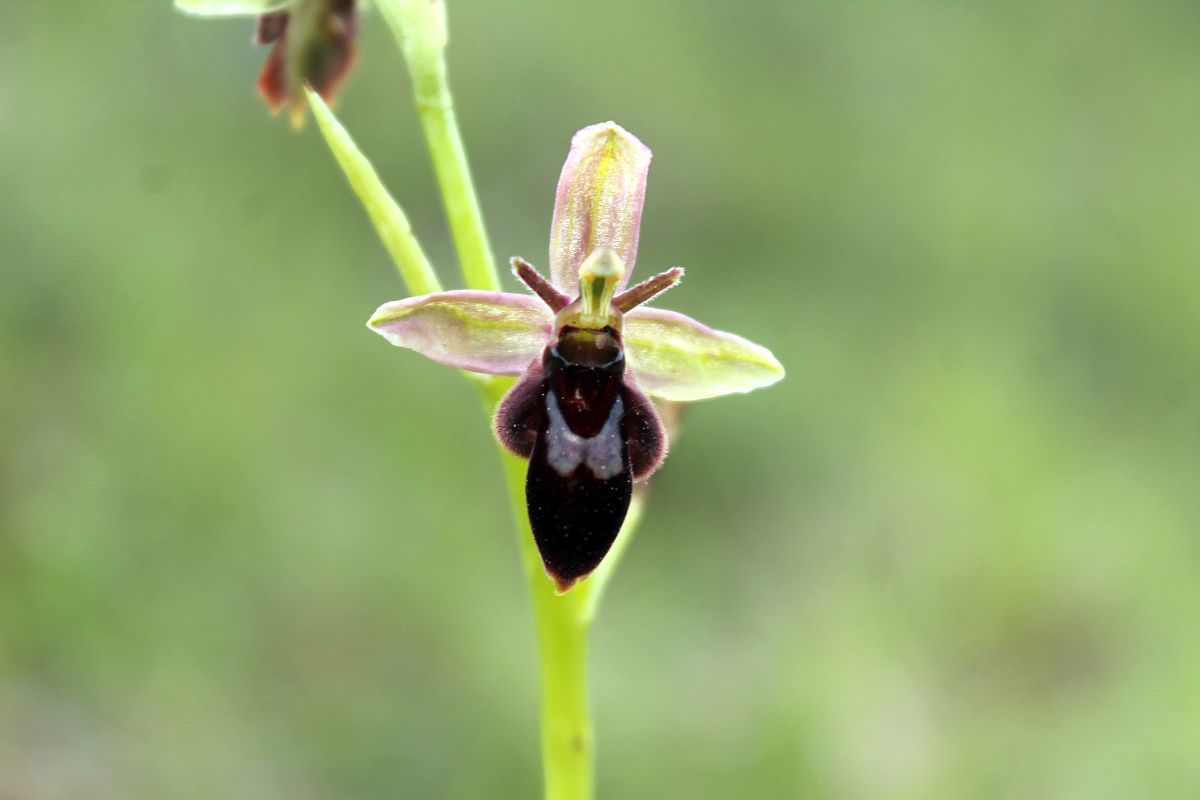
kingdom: Plantae
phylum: Tracheophyta
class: Liliopsida
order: Asparagales
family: Orchidaceae
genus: Ophrys
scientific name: Ophrys pietzschii
